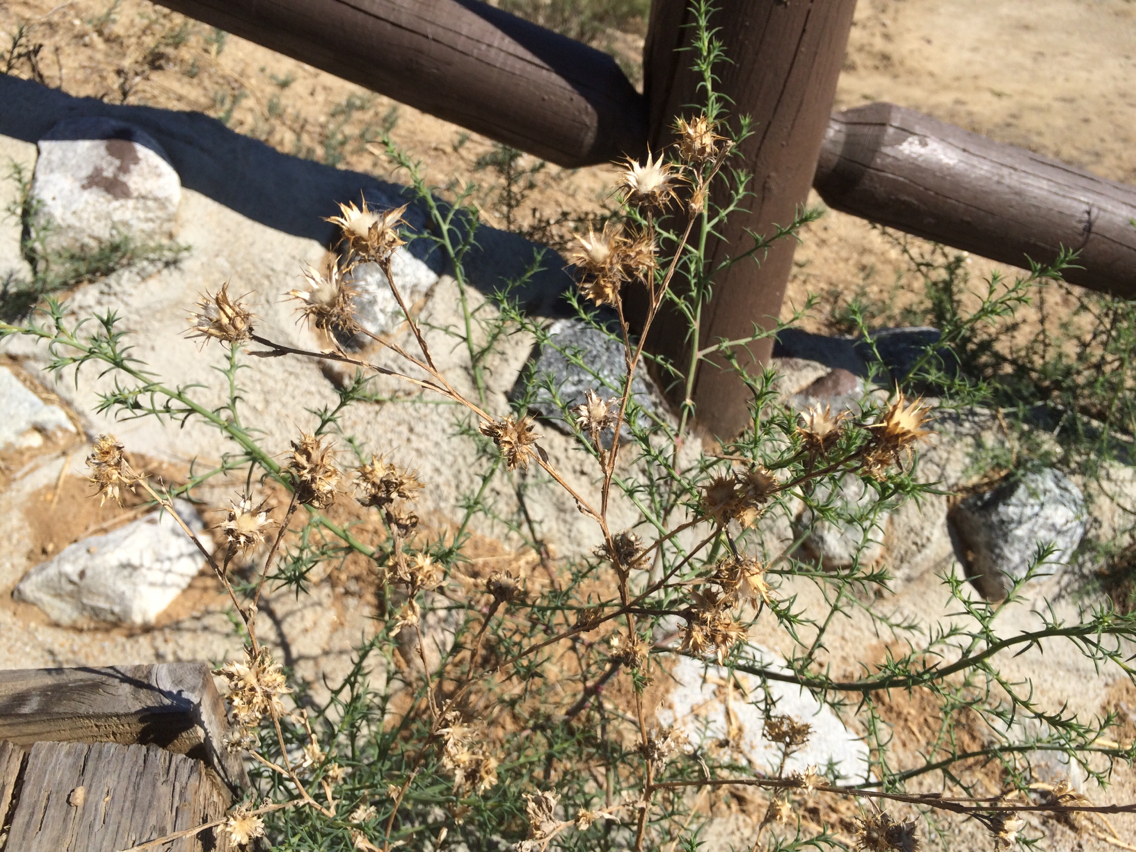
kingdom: Plantae
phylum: Tracheophyta
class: Magnoliopsida
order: Asterales
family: Asteraceae
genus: Centaurea
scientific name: Centaurea melitensis
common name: Maltese star-thistle
